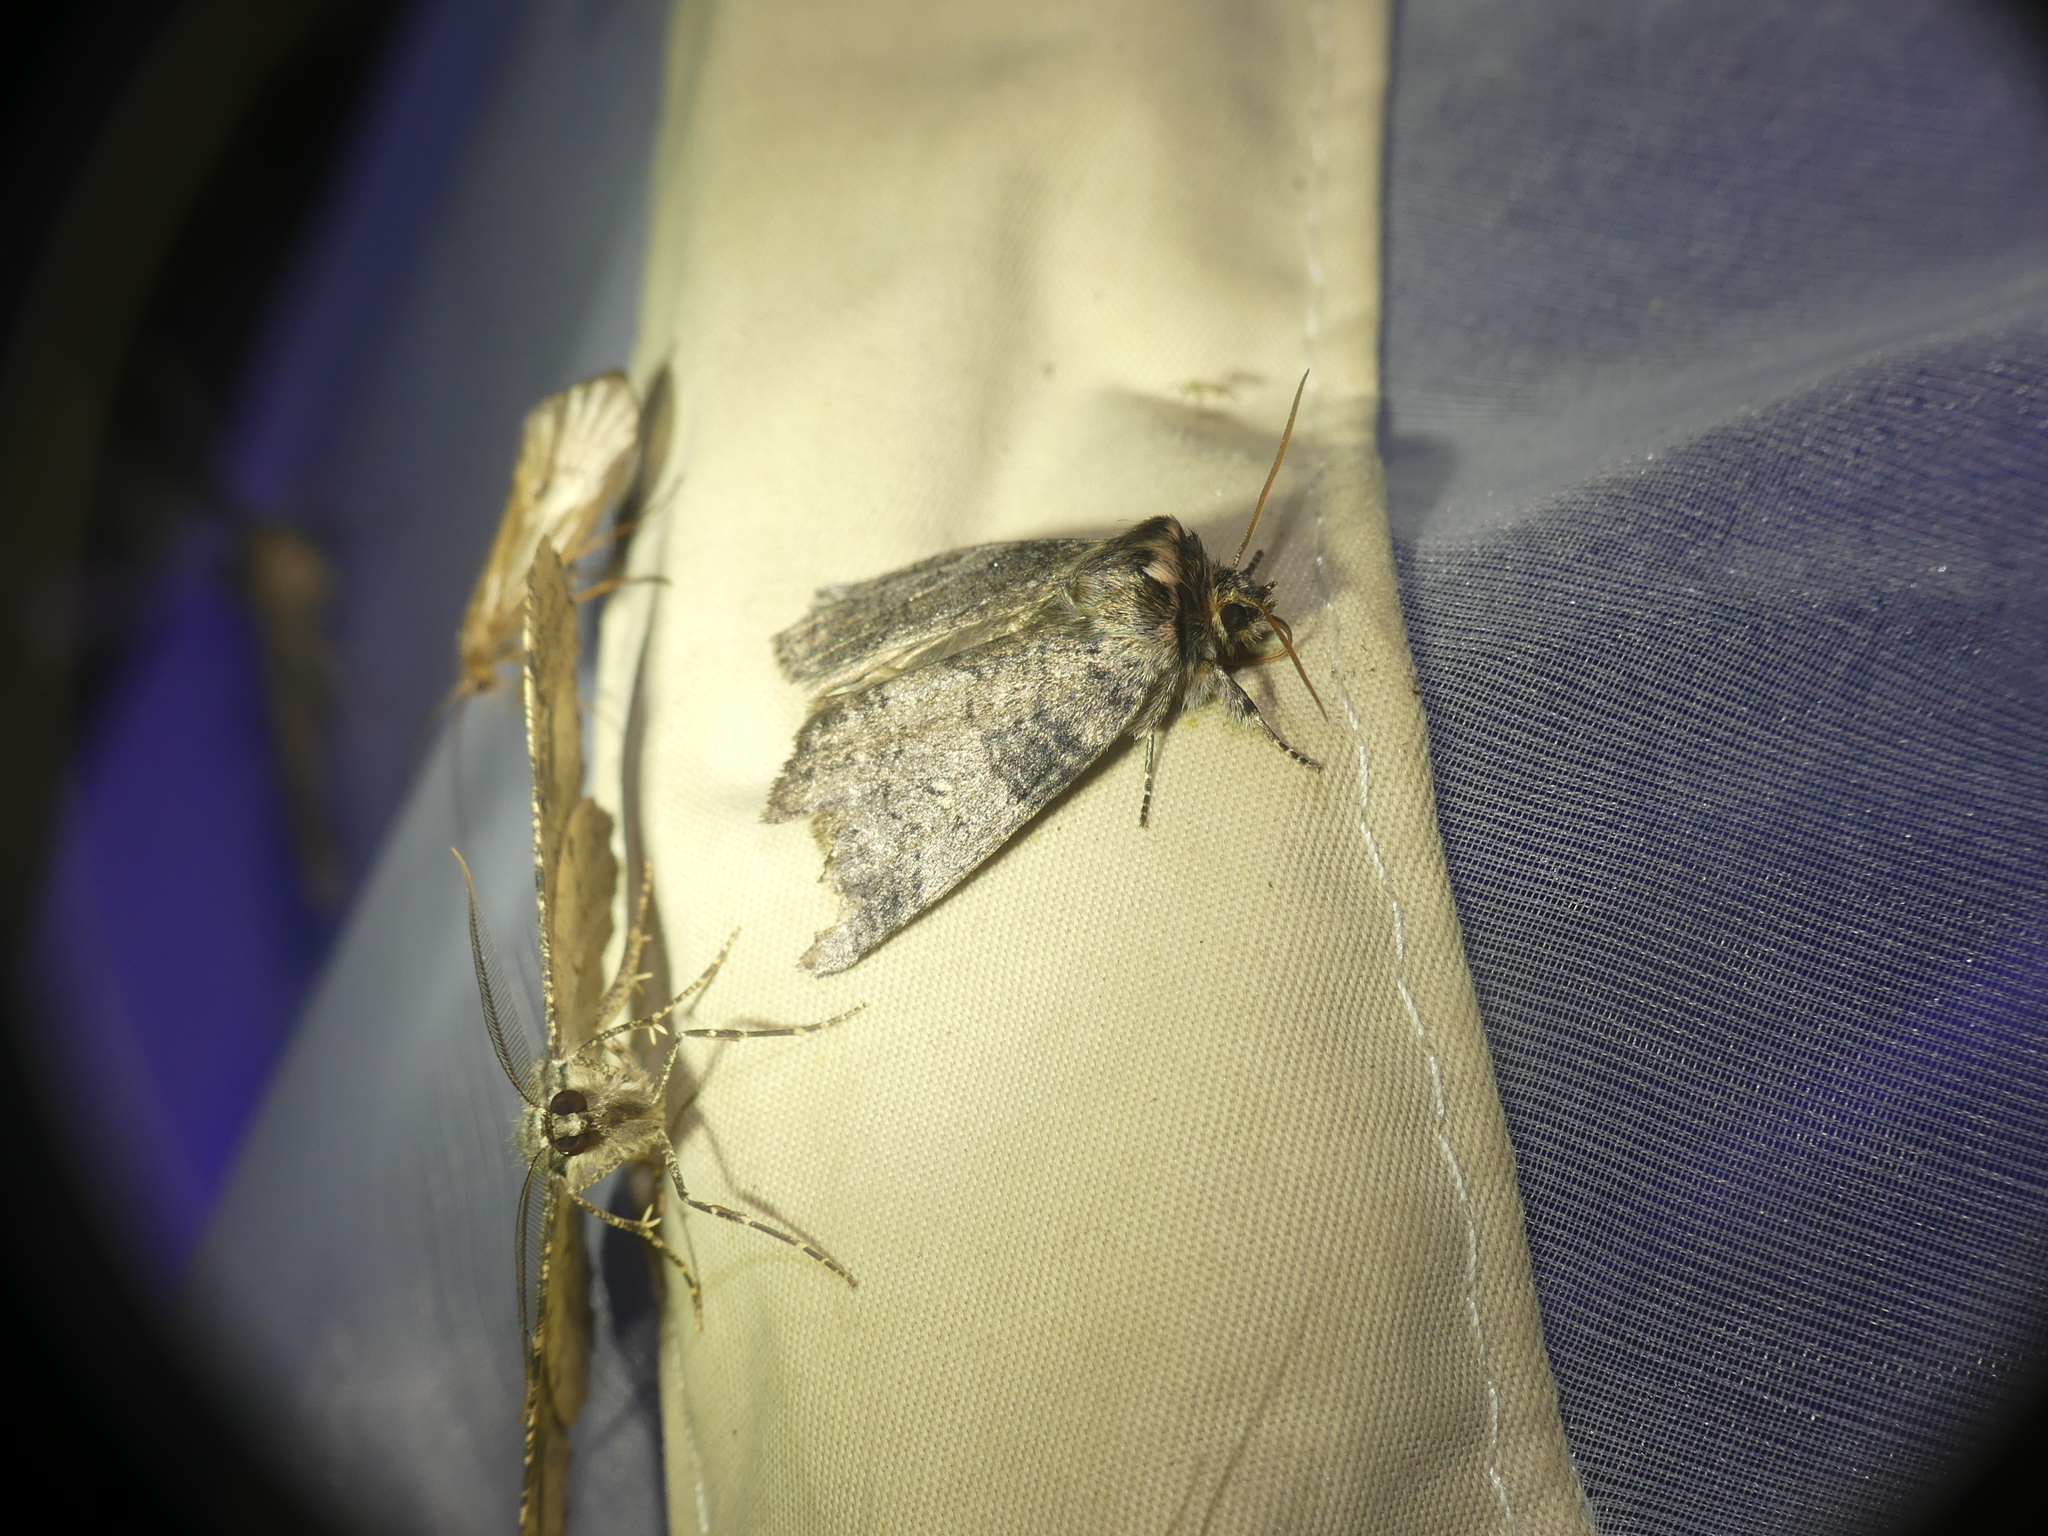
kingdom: Animalia
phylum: Arthropoda
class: Insecta
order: Lepidoptera
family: Drepanidae
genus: Tethea
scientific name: Tethea or
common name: Poplar lutestring
